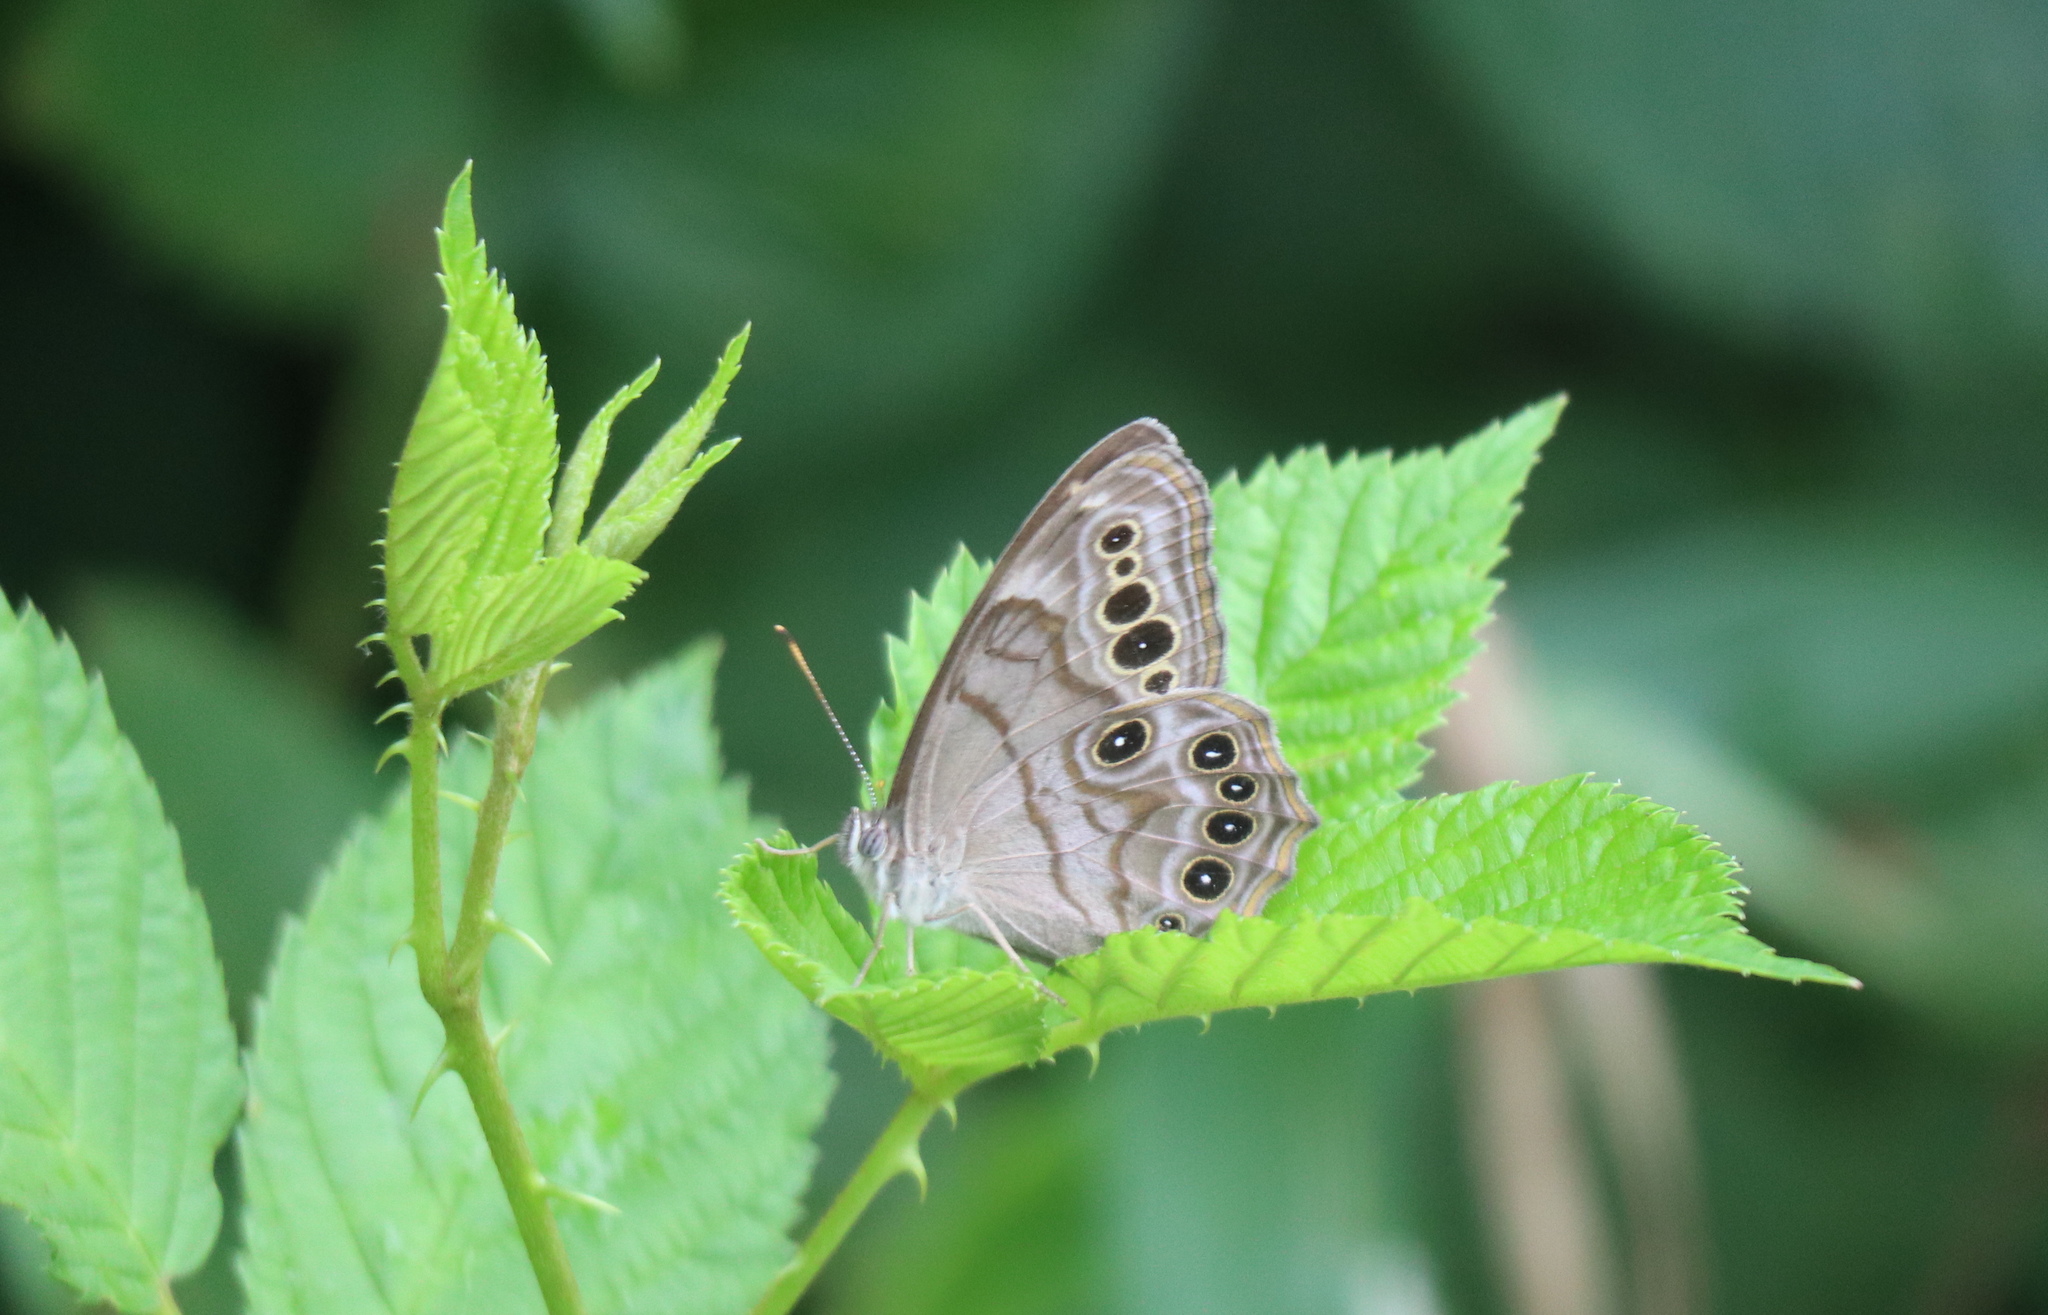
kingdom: Animalia
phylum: Arthropoda
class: Insecta
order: Lepidoptera
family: Nymphalidae
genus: Lethe
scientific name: Lethe anthedon
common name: Northern pearly-eye
